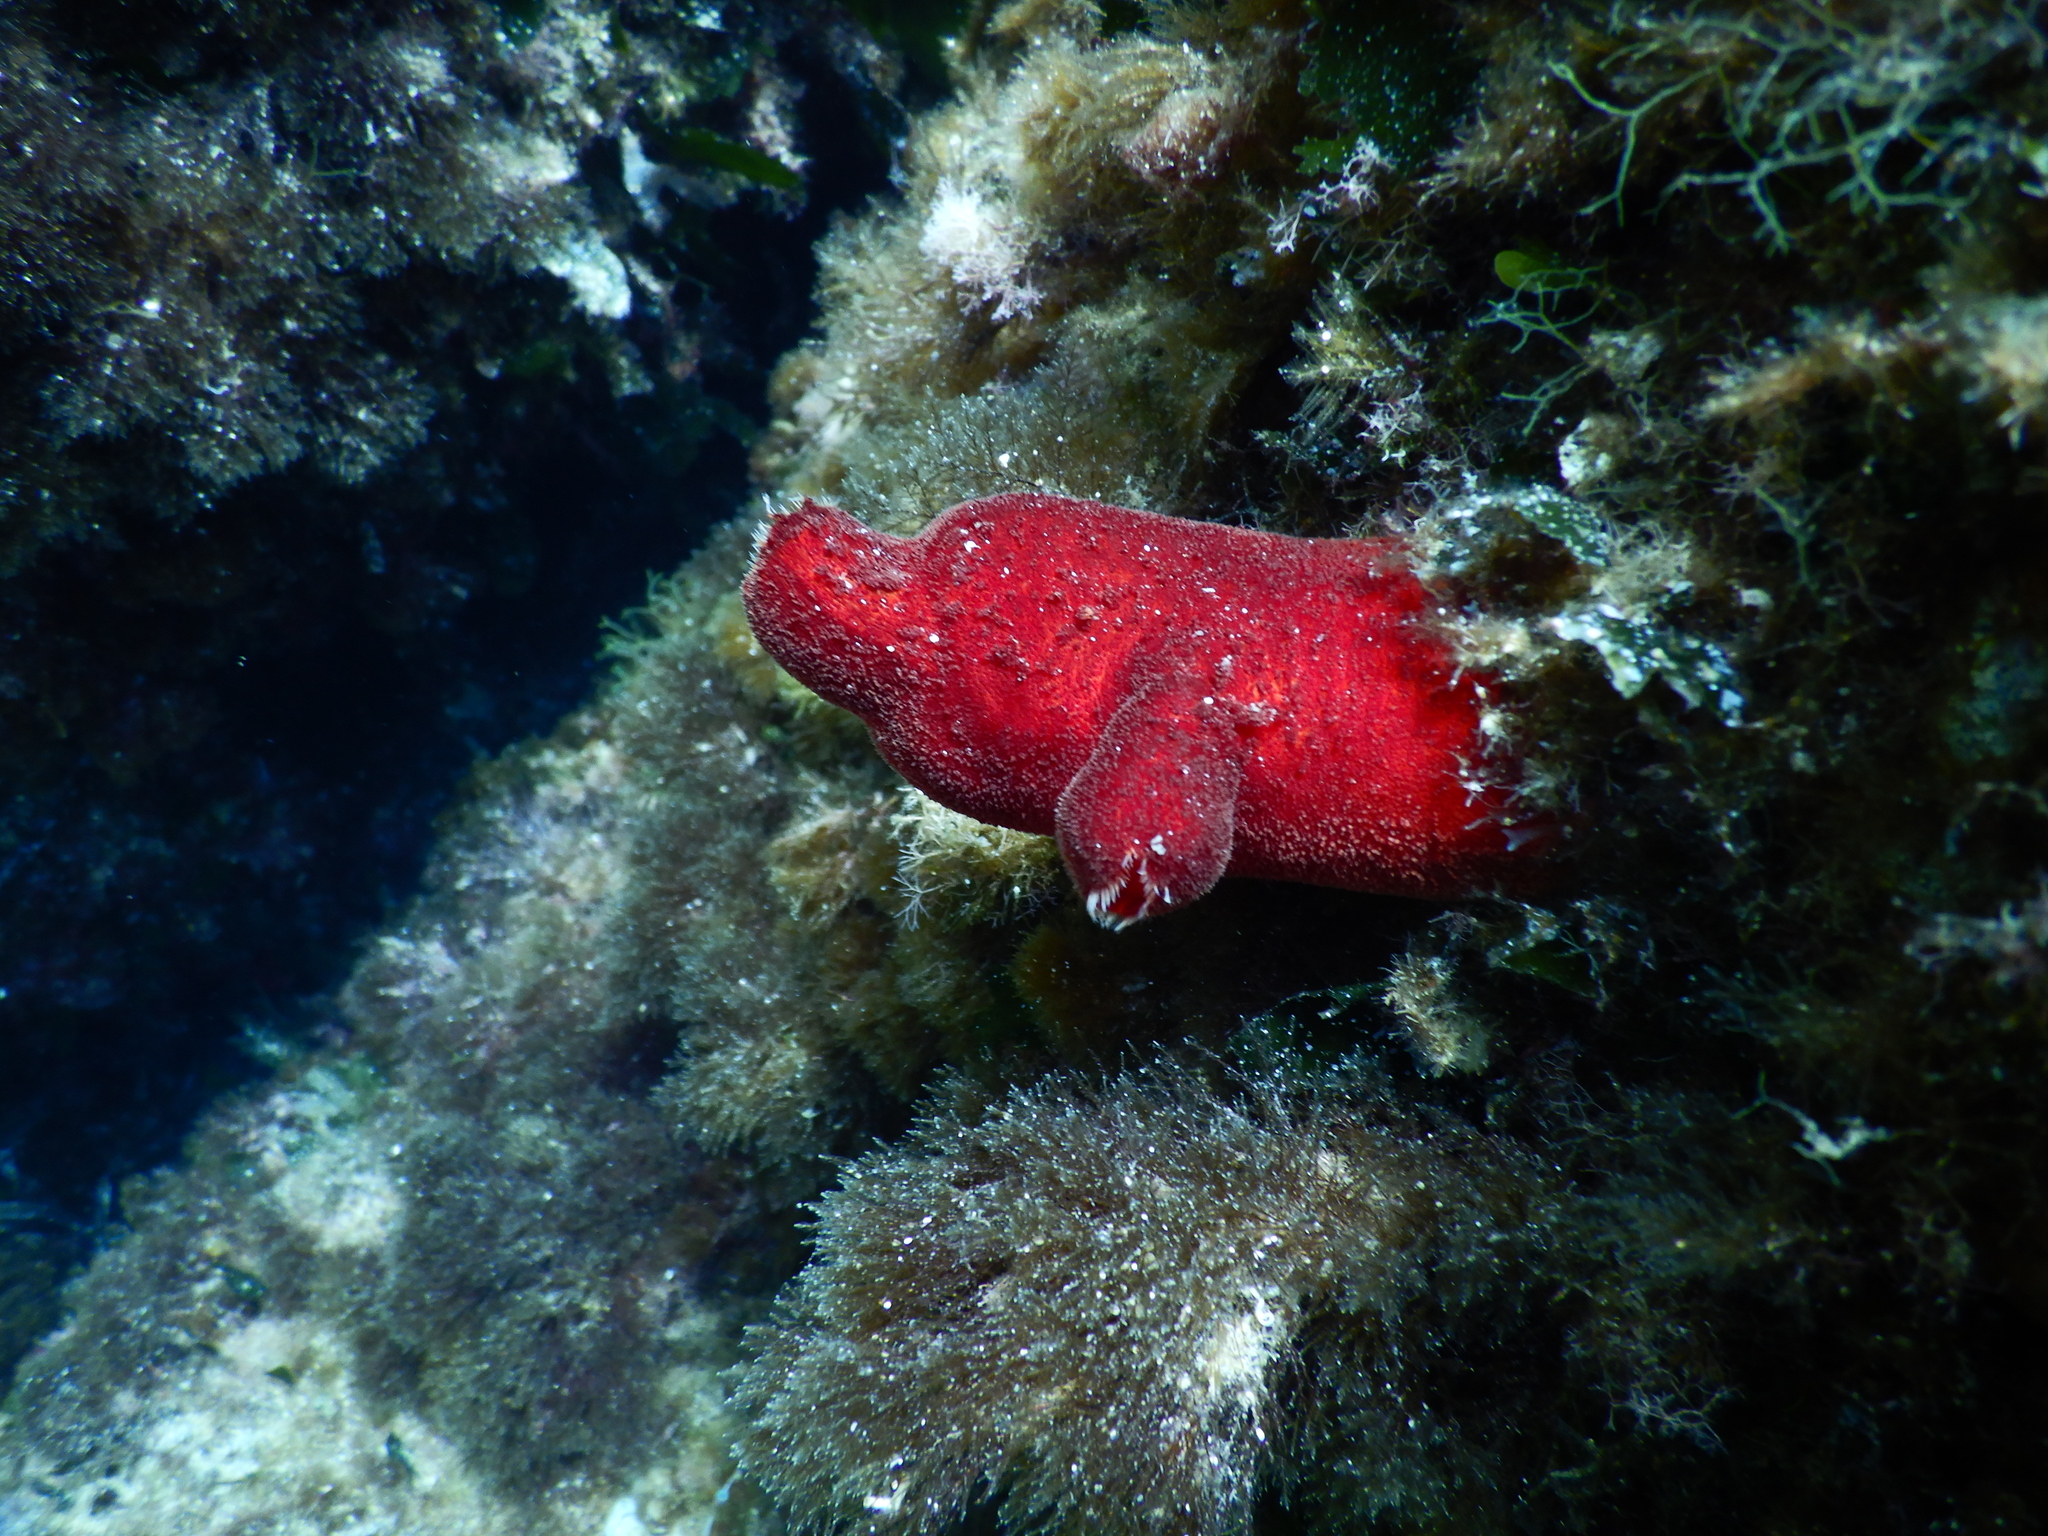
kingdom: Animalia
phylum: Chordata
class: Ascidiacea
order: Stolidobranchia
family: Pyuridae
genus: Halocynthia
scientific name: Halocynthia papillosa
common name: Red sea-squirt
